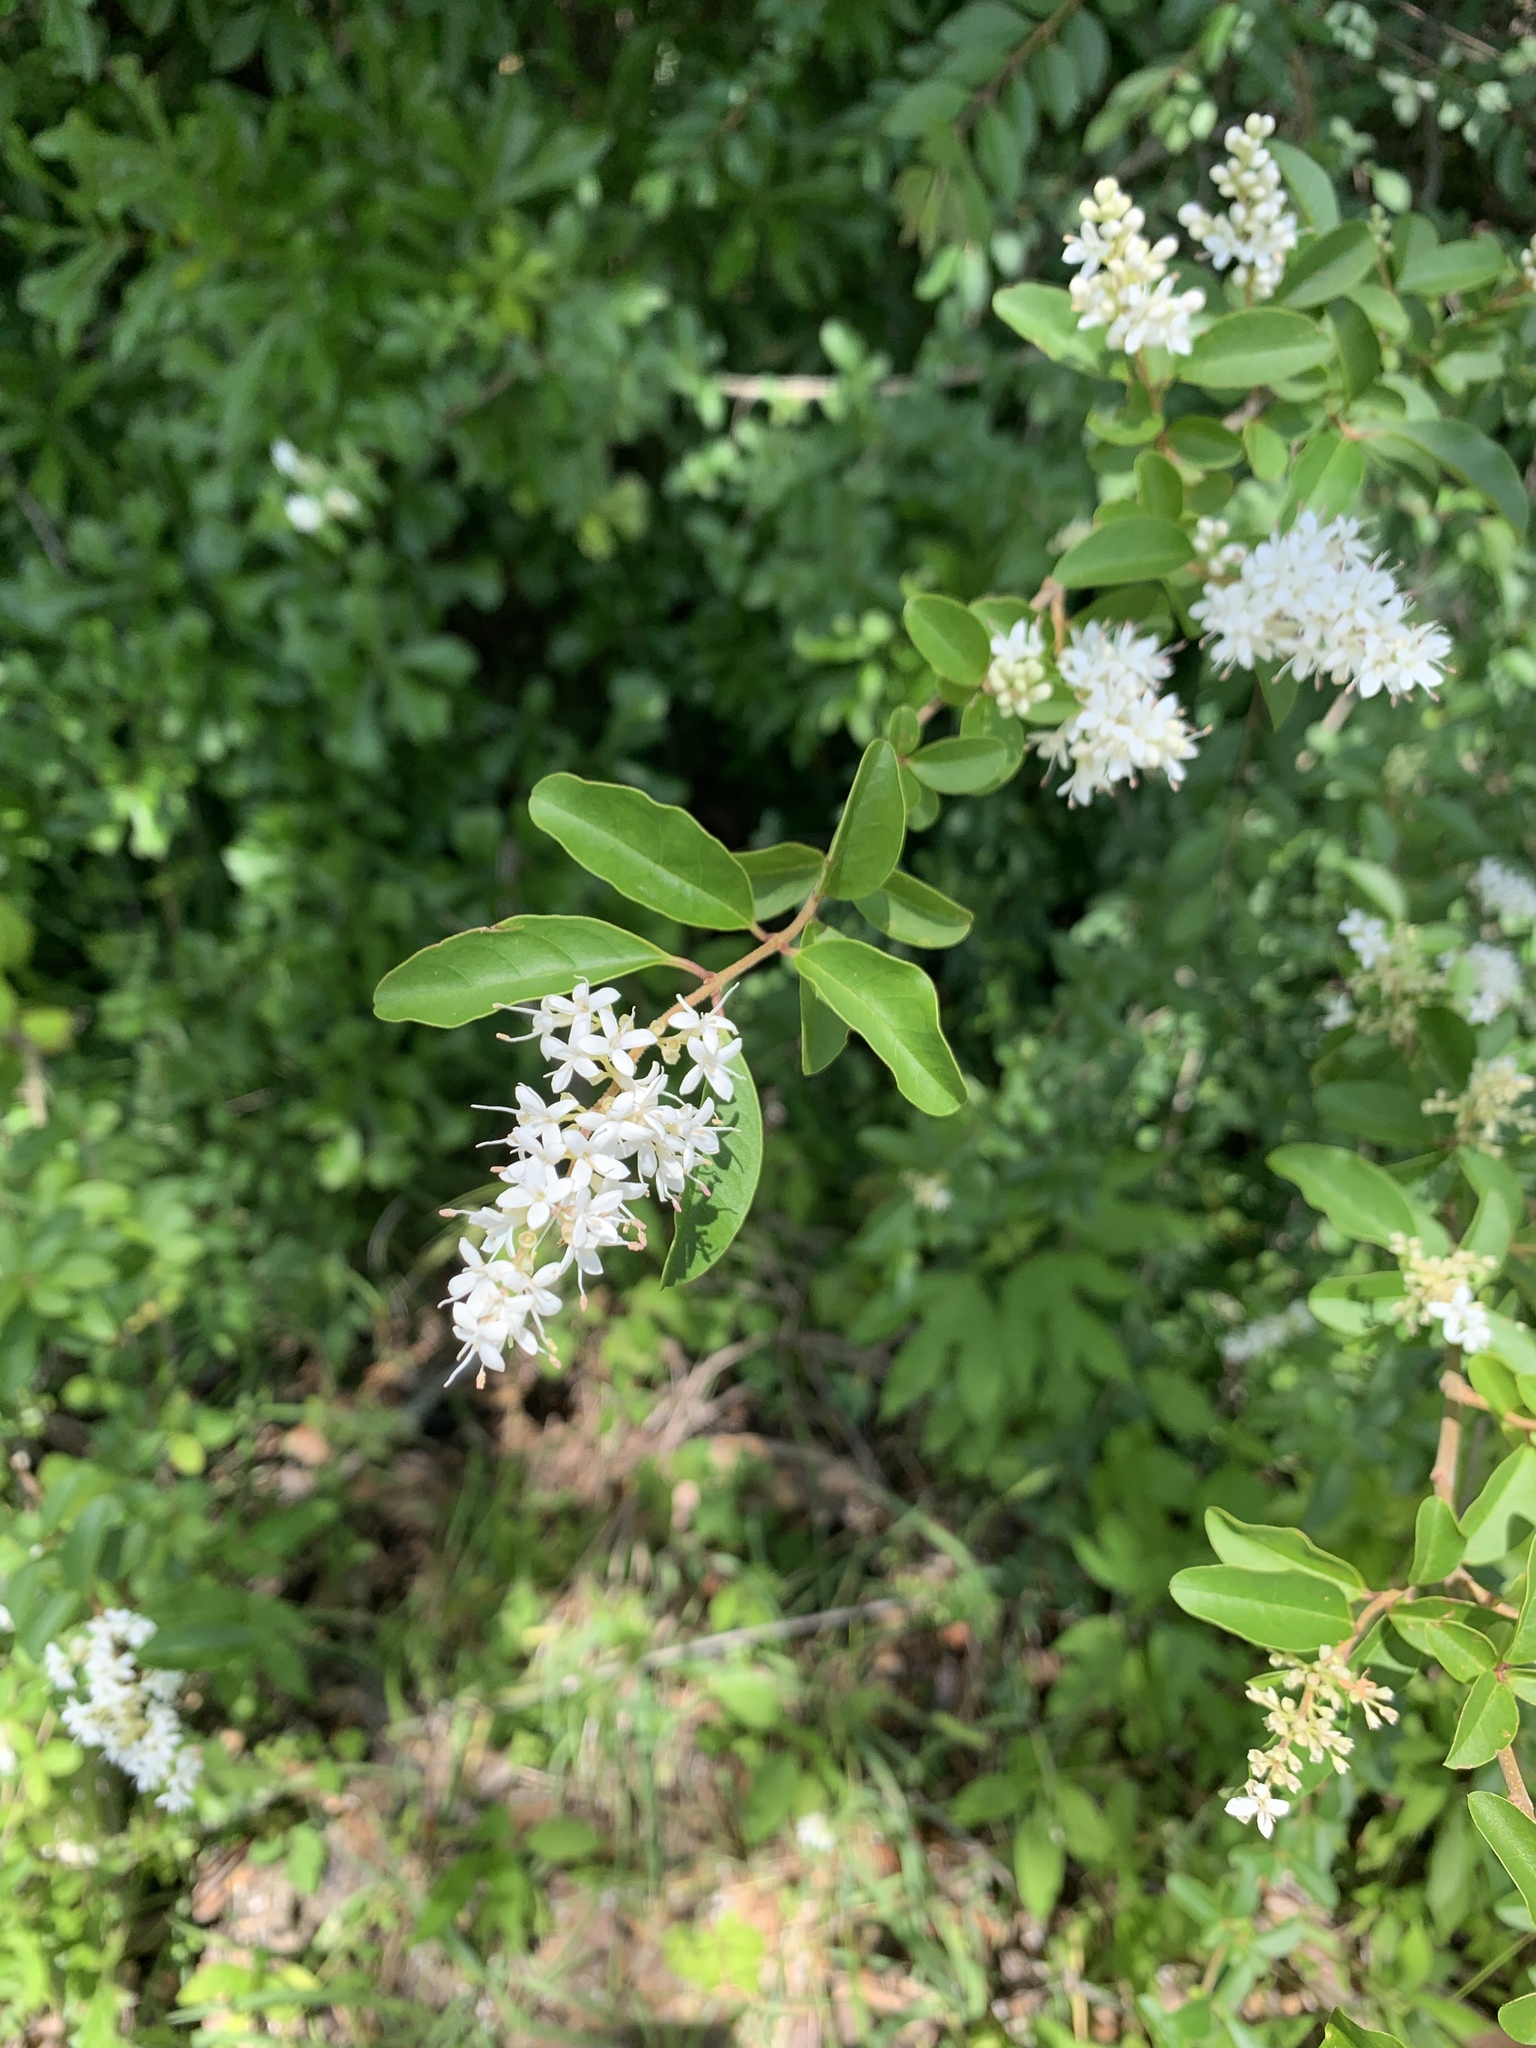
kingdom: Plantae
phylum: Tracheophyta
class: Magnoliopsida
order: Lamiales
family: Oleaceae
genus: Ligustrum
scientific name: Ligustrum sinense
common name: Chinese privet
